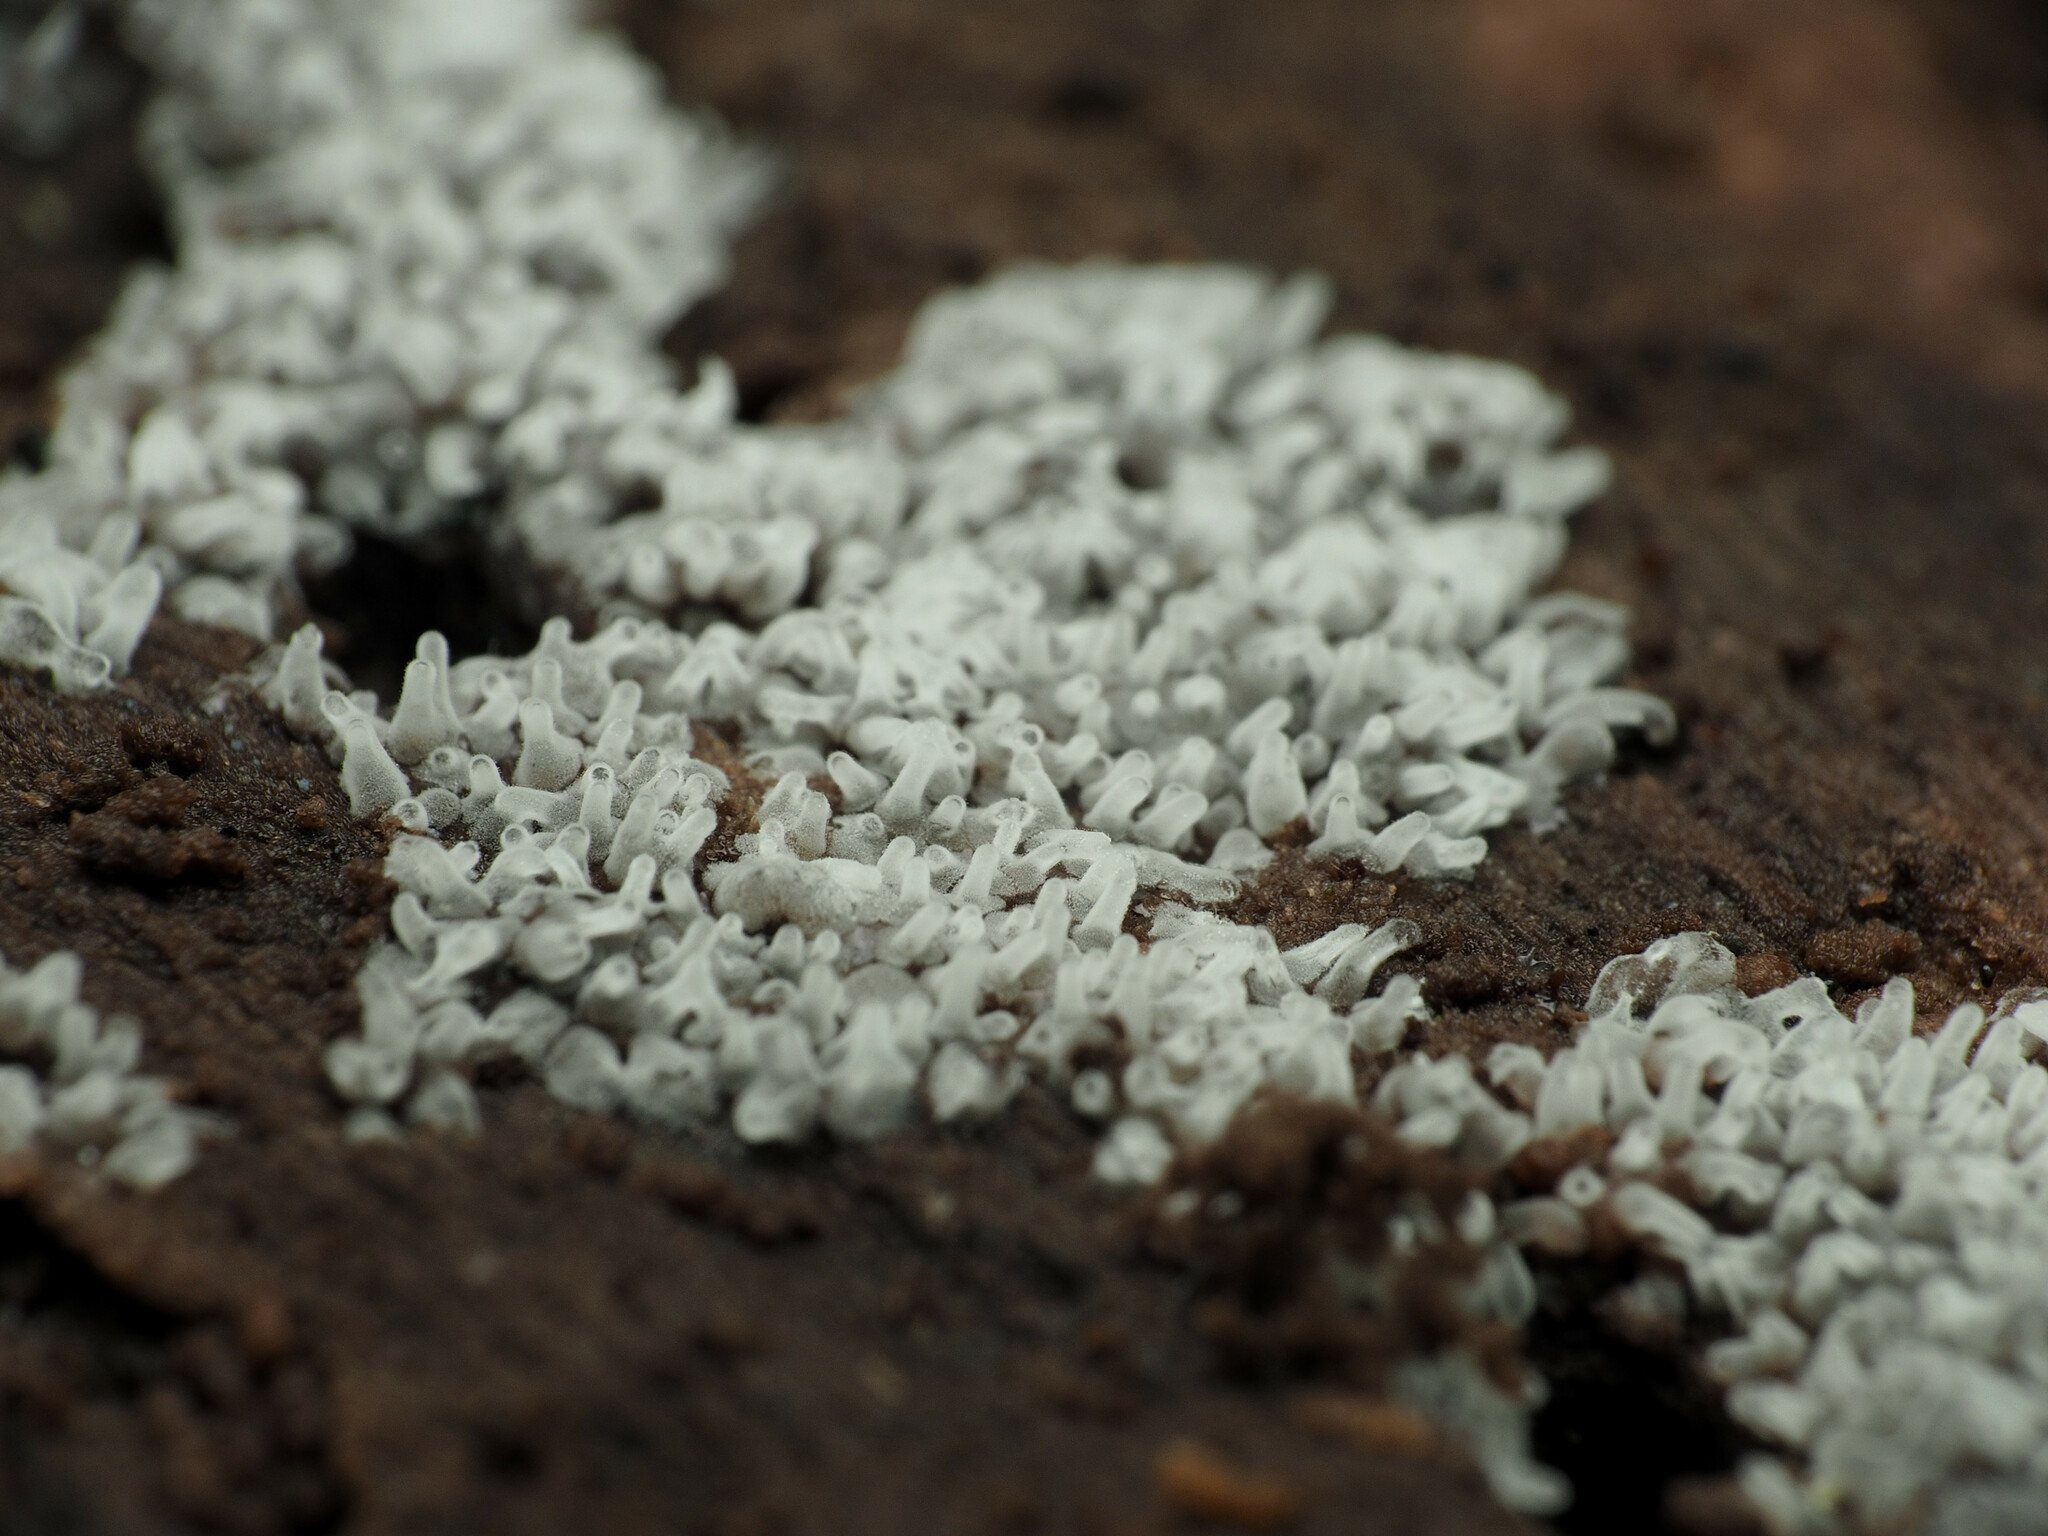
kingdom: Protozoa
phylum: Mycetozoa
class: Protosteliomycetes
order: Ceratiomyxales
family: Ceratiomyxaceae
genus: Ceratiomyxa
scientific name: Ceratiomyxa fruticulosa
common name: Honeycomb coral slime mold
